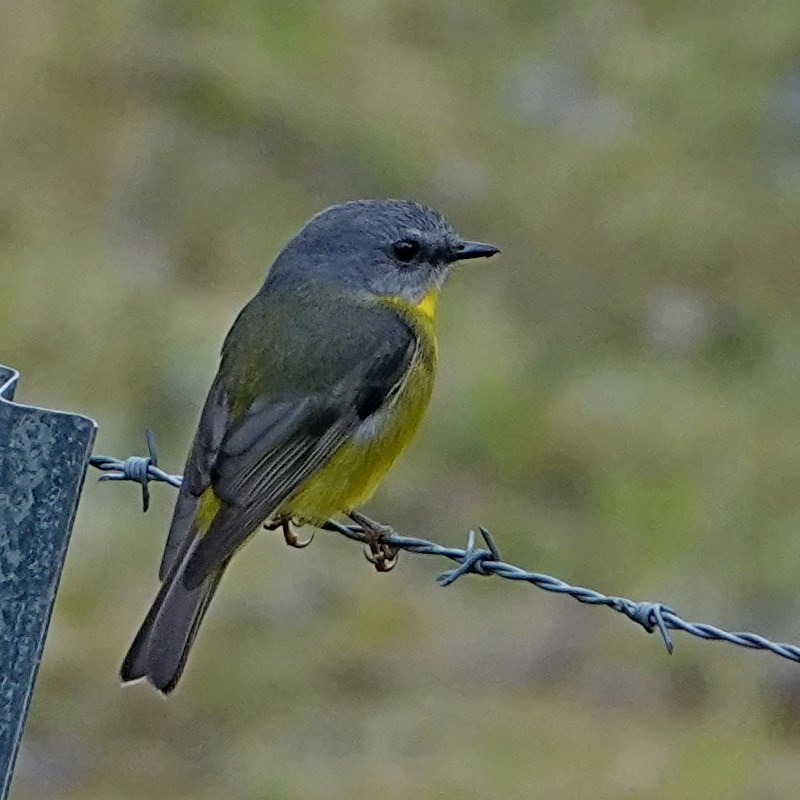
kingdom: Animalia
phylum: Chordata
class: Aves
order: Passeriformes
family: Petroicidae
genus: Eopsaltria
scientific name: Eopsaltria australis
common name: Eastern yellow robin
